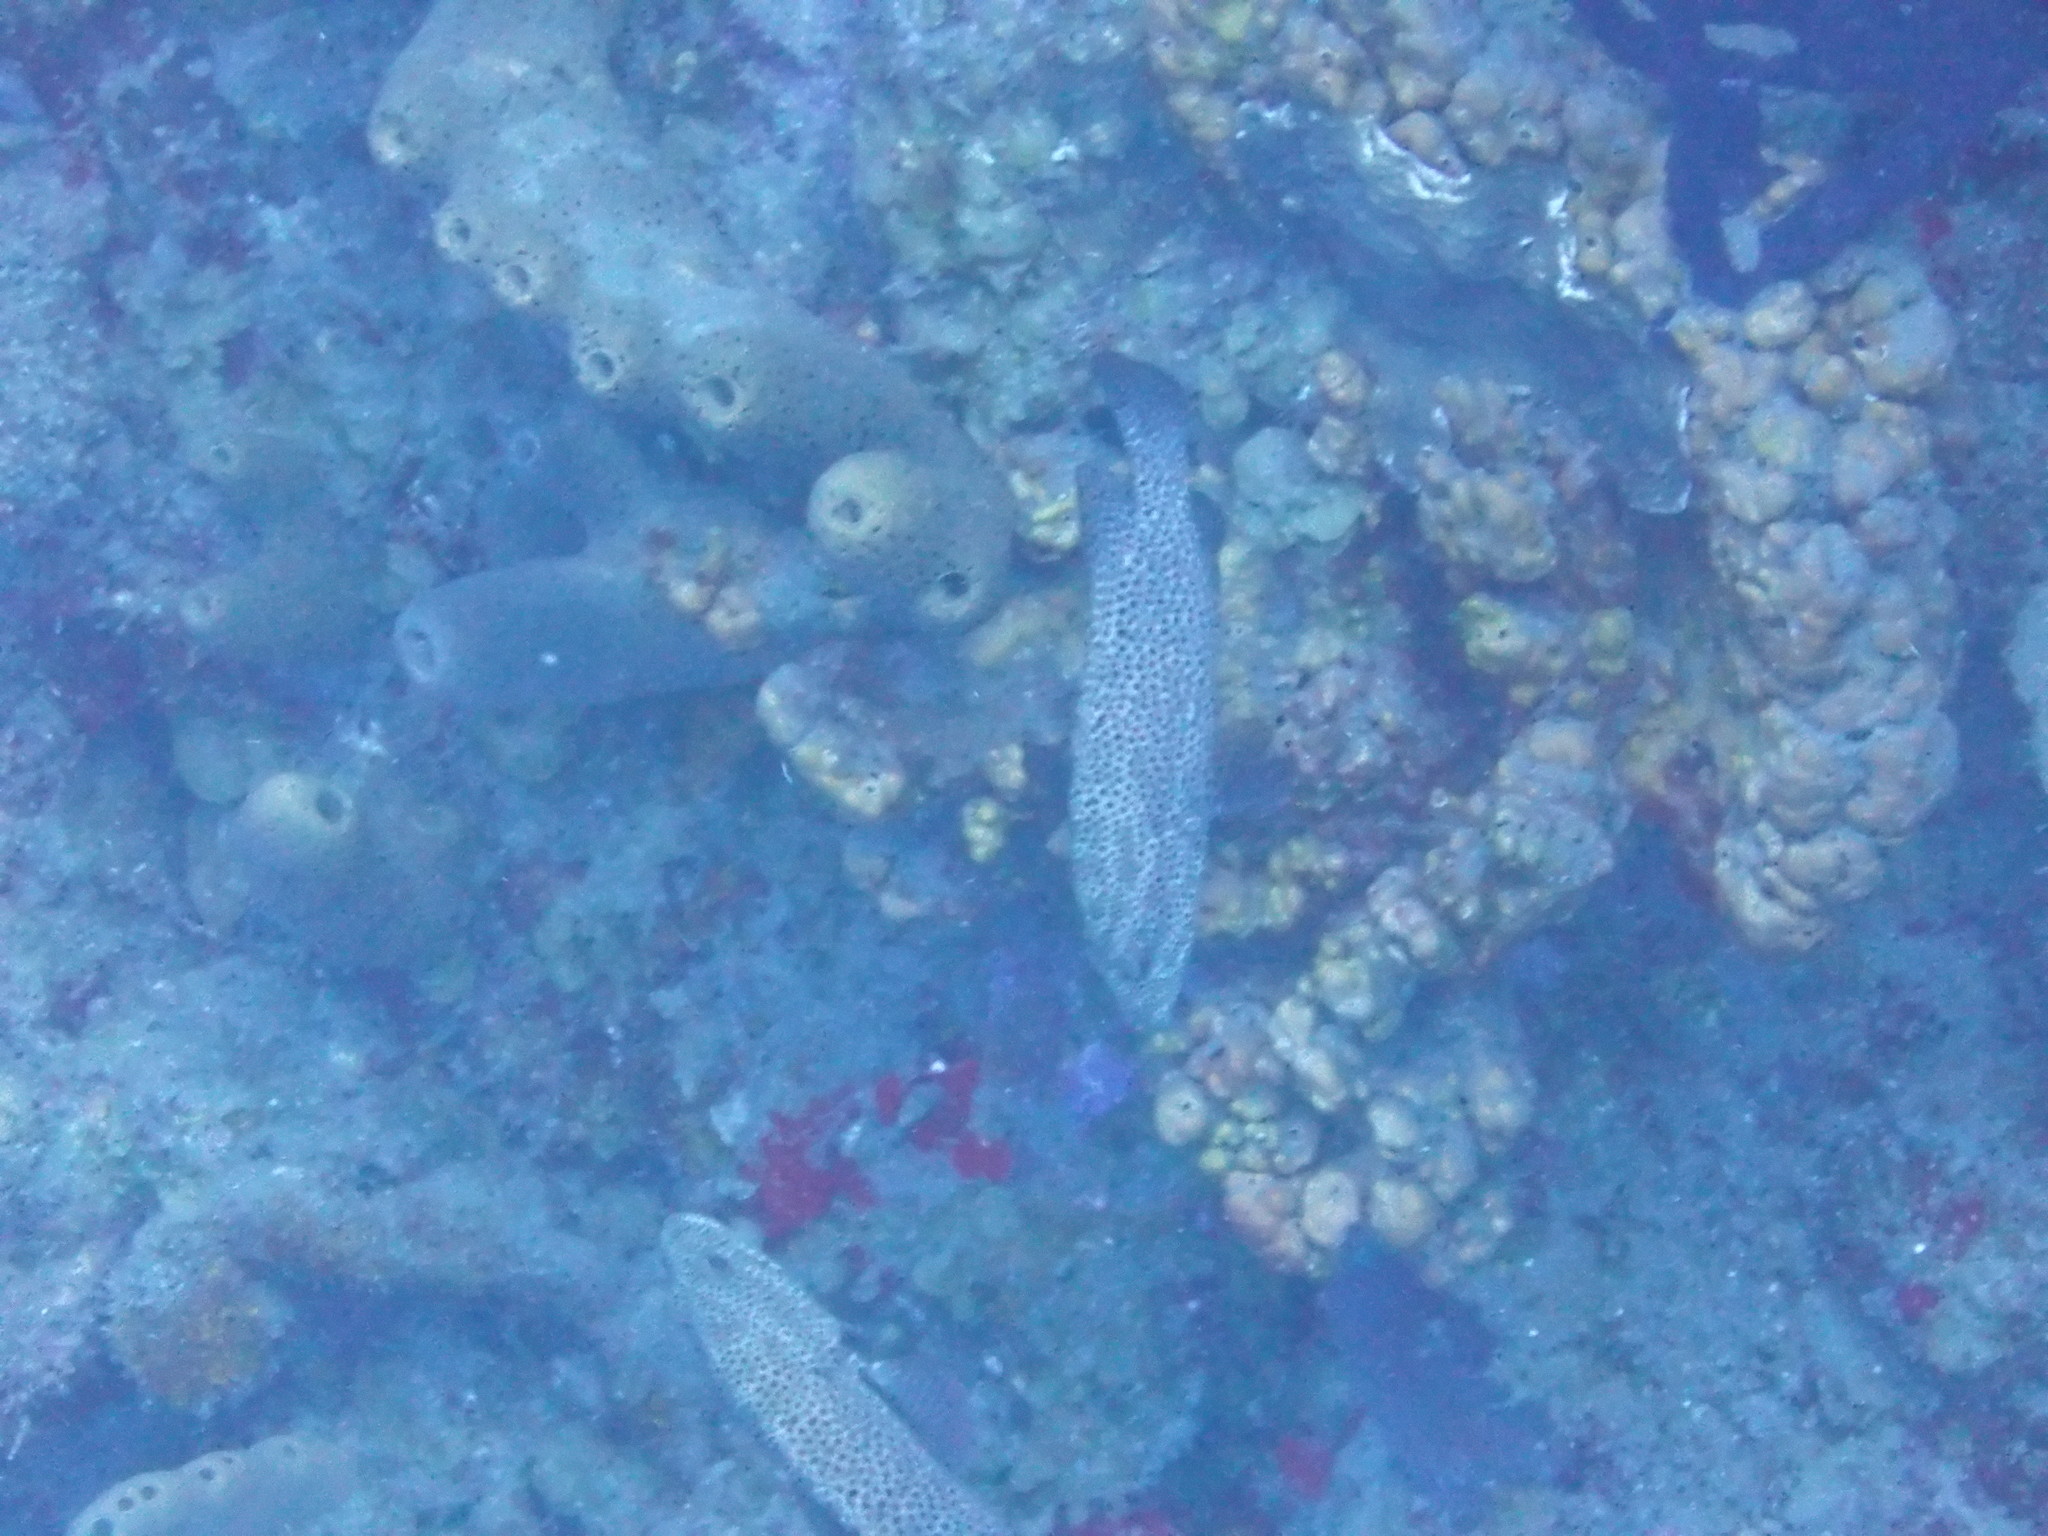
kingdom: Animalia
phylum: Chordata
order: Perciformes
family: Serranidae
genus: Cephalopholis
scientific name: Cephalopholis cruentata
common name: Graysby
